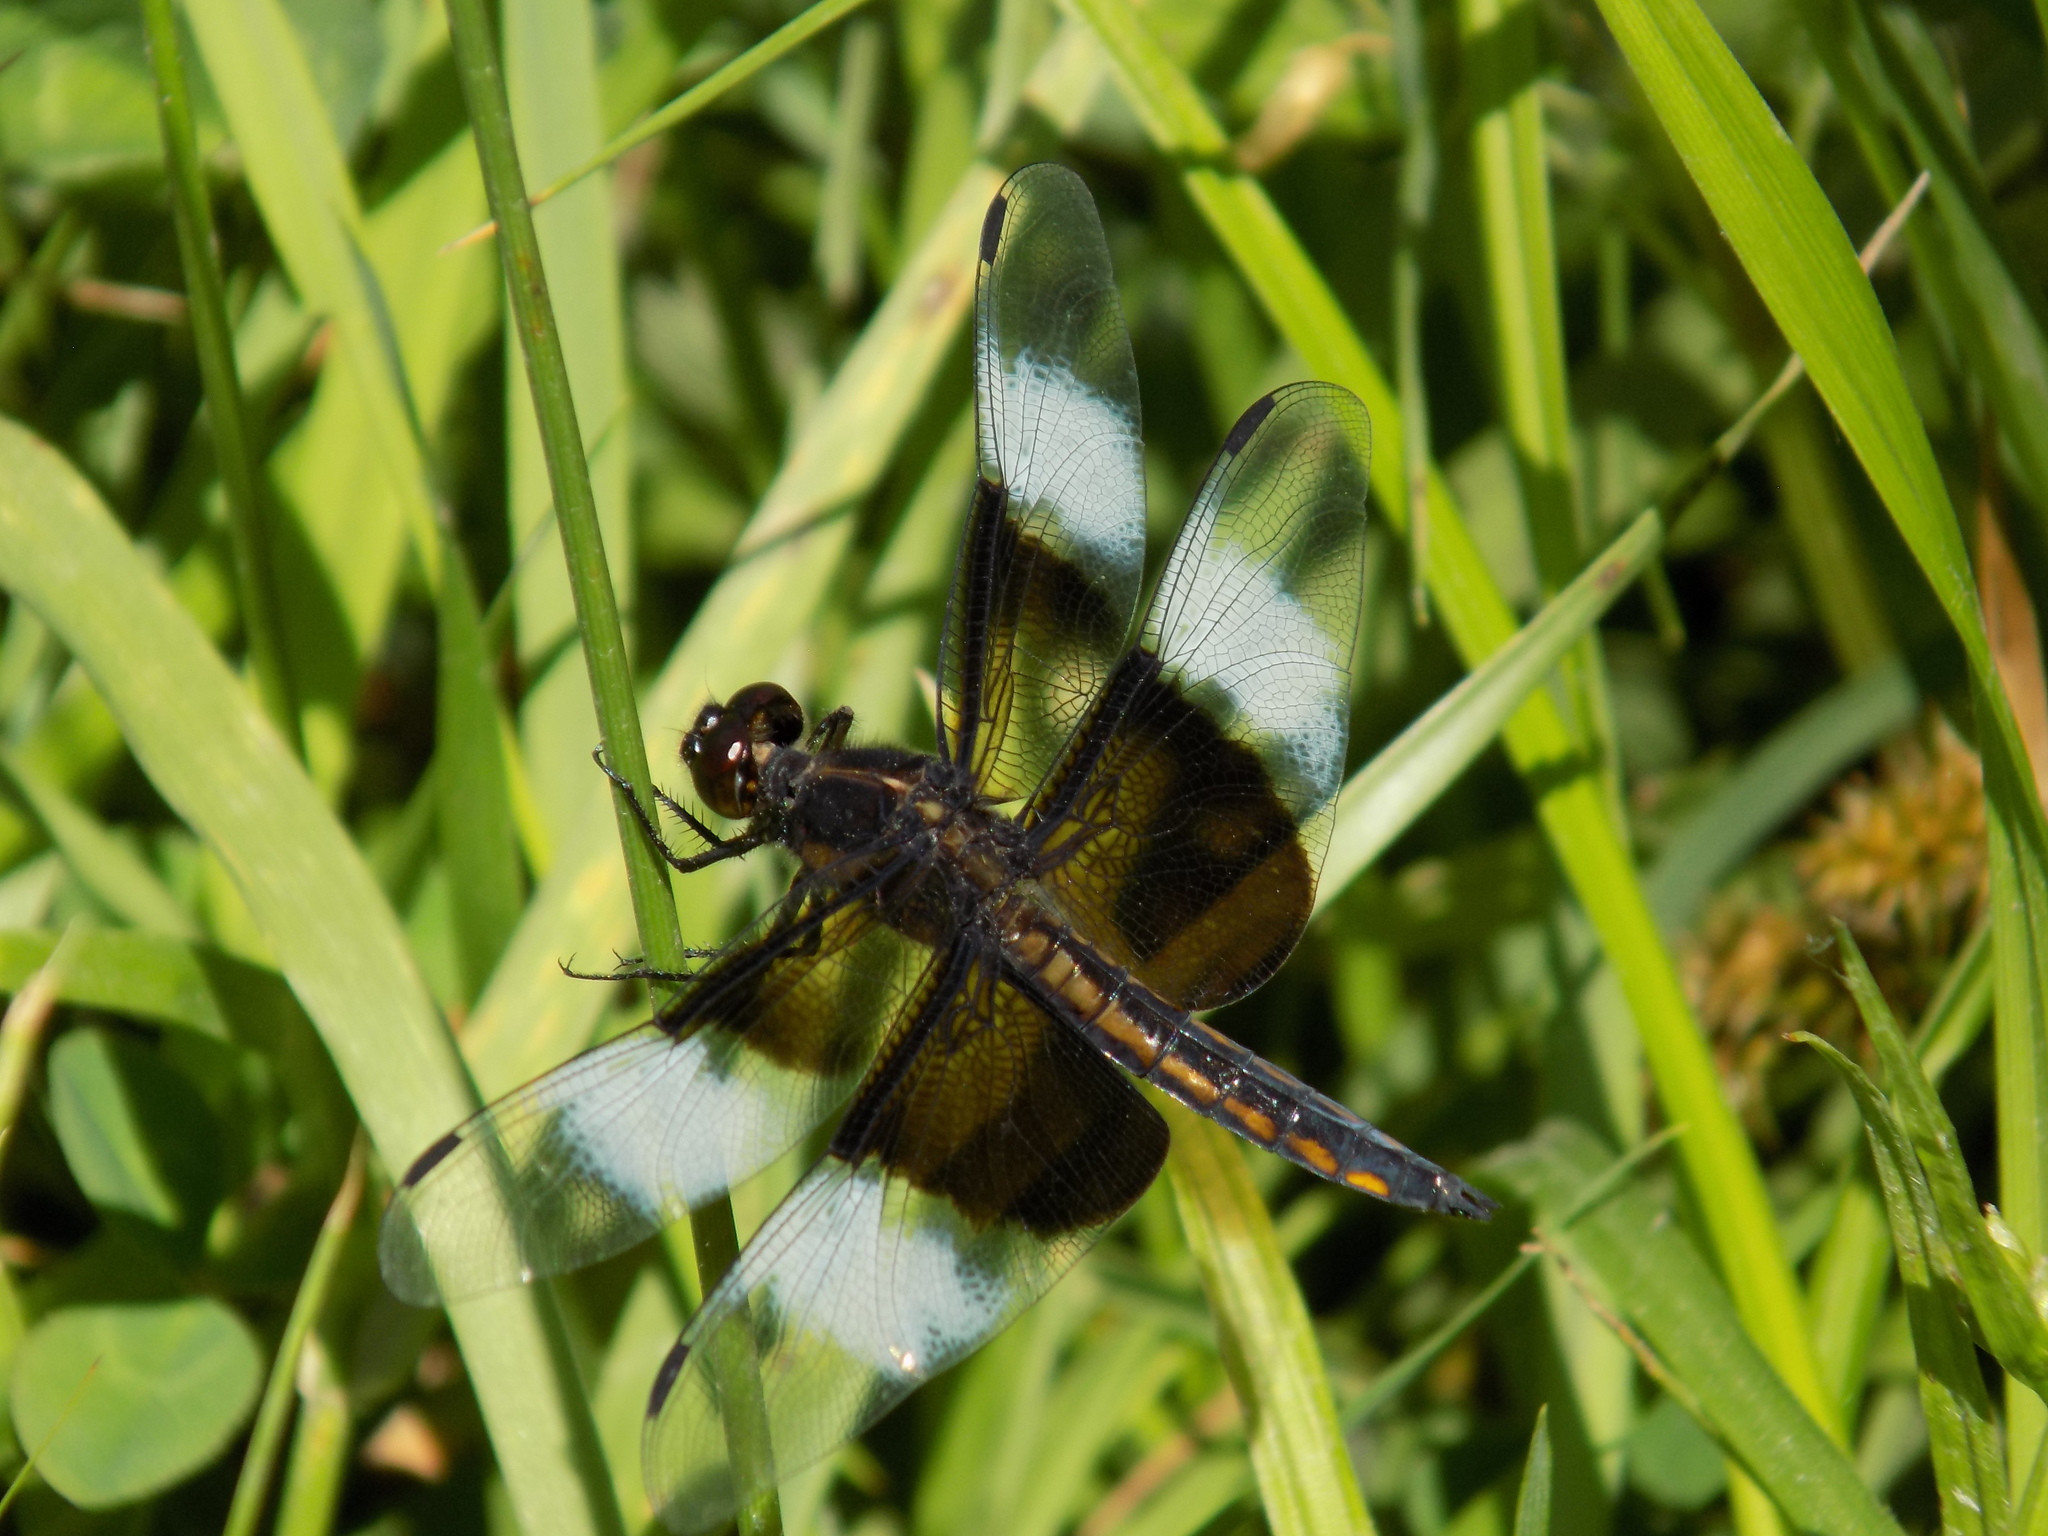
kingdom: Animalia
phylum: Arthropoda
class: Insecta
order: Odonata
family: Libellulidae
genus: Libellula
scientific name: Libellula luctuosa
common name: Widow skimmer
